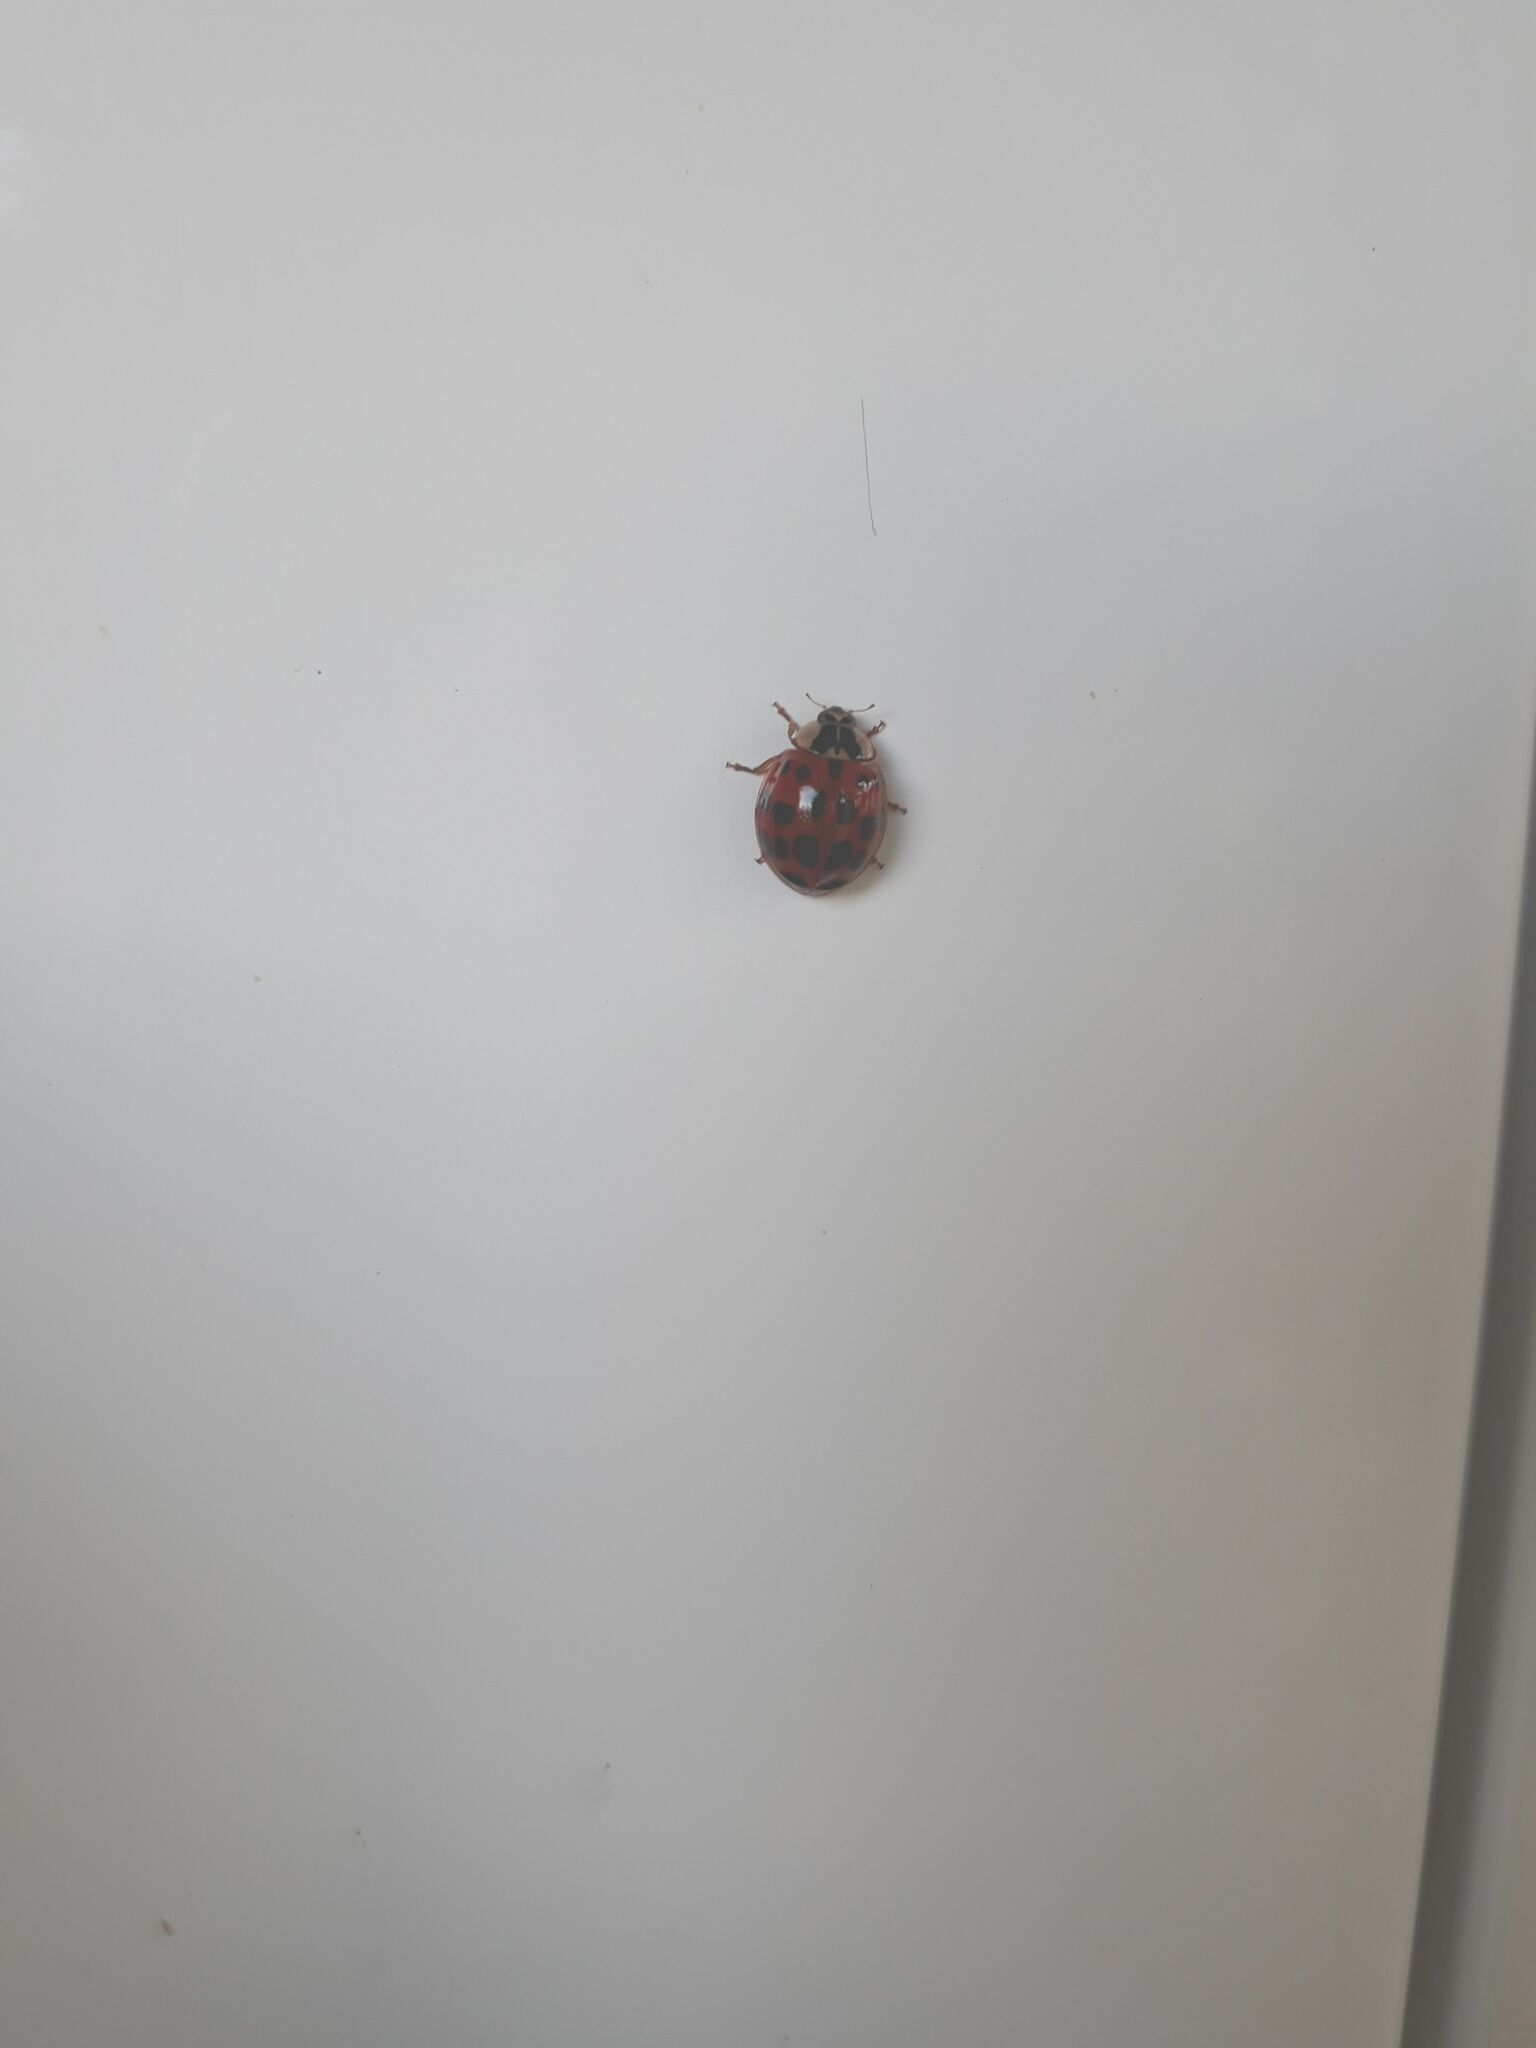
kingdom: Animalia
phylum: Arthropoda
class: Insecta
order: Coleoptera
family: Coccinellidae
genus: Harmonia
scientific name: Harmonia axyridis
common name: Harlequin ladybird
